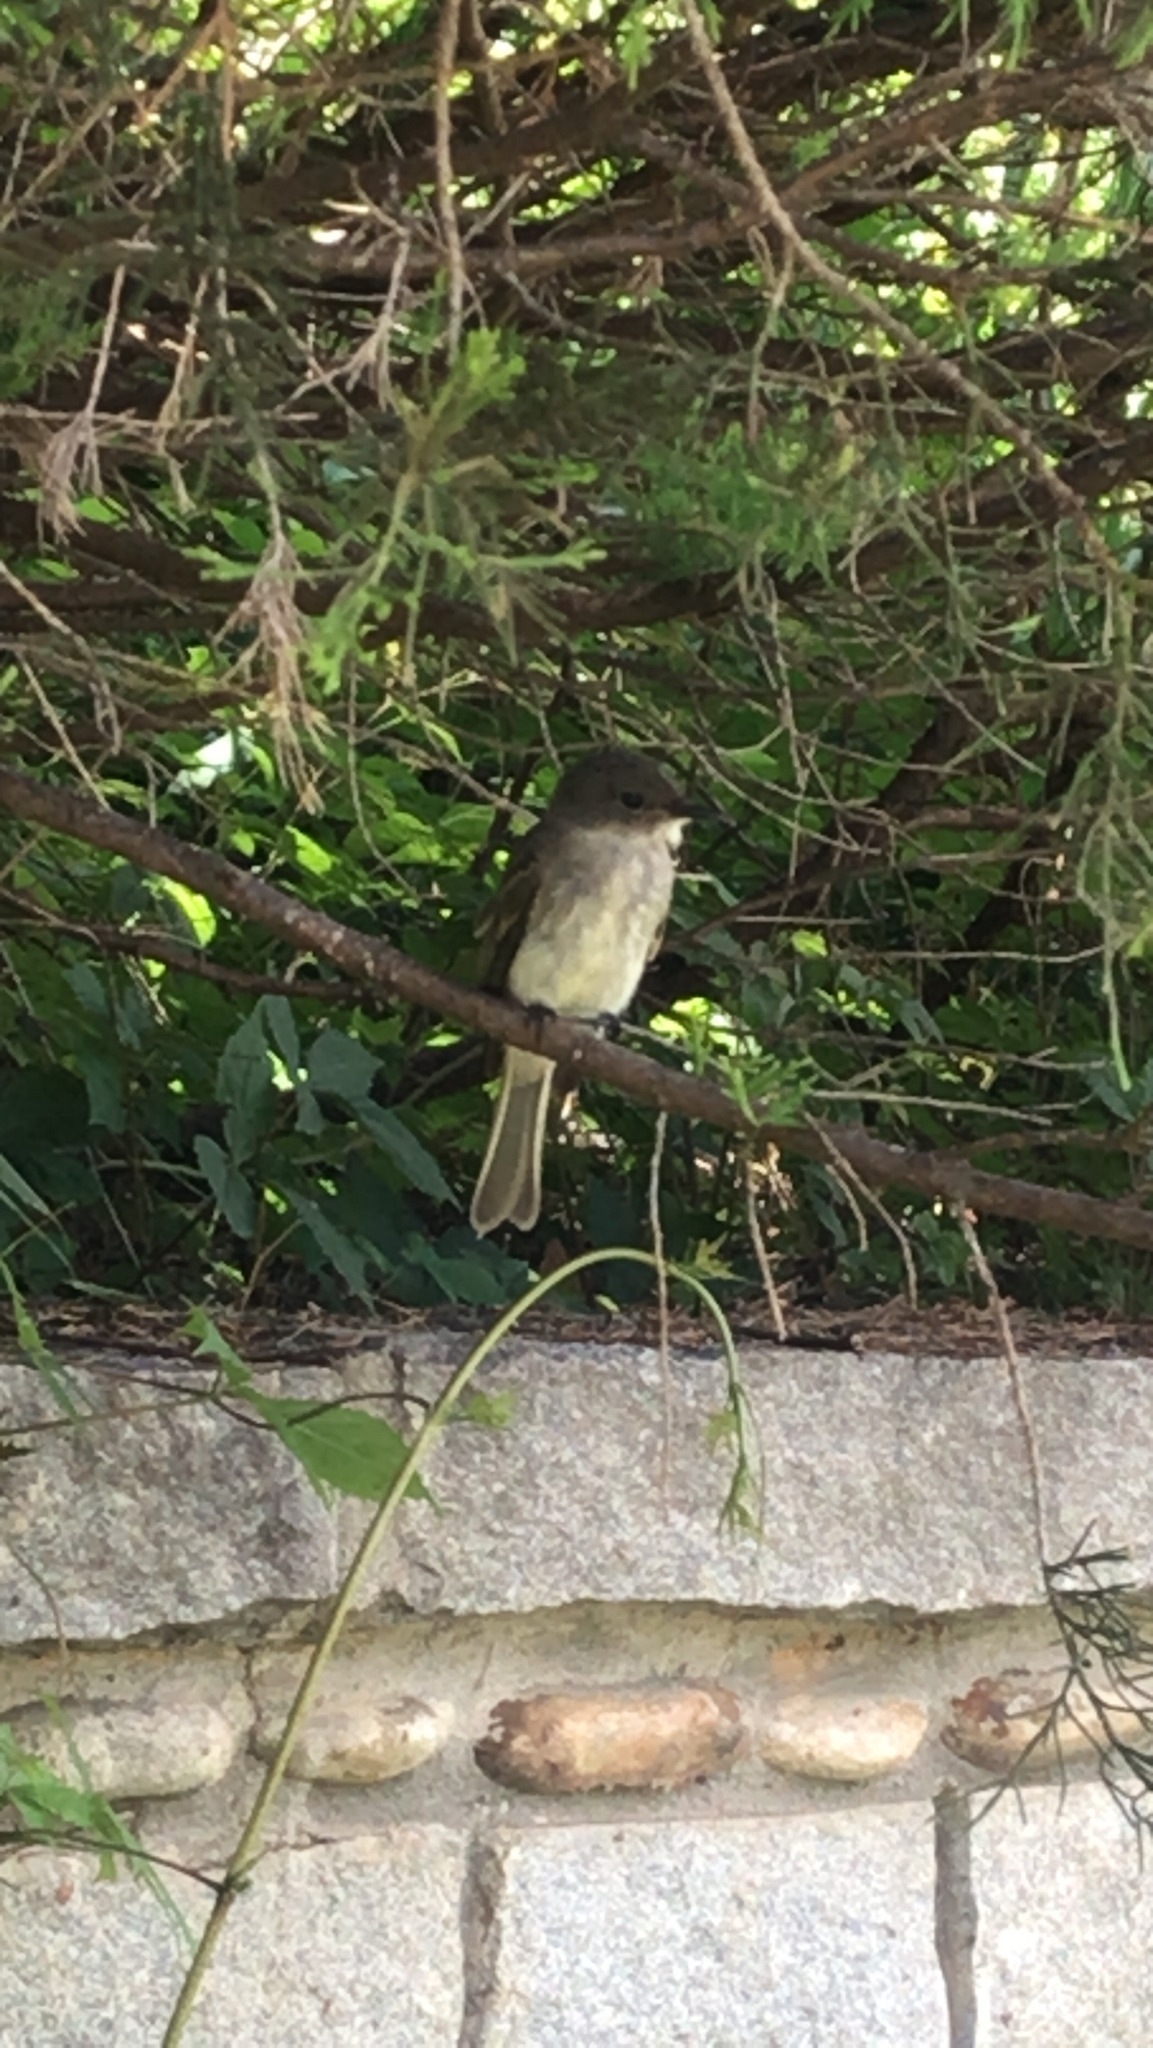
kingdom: Animalia
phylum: Chordata
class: Aves
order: Passeriformes
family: Tyrannidae
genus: Sayornis
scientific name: Sayornis phoebe
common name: Eastern phoebe
